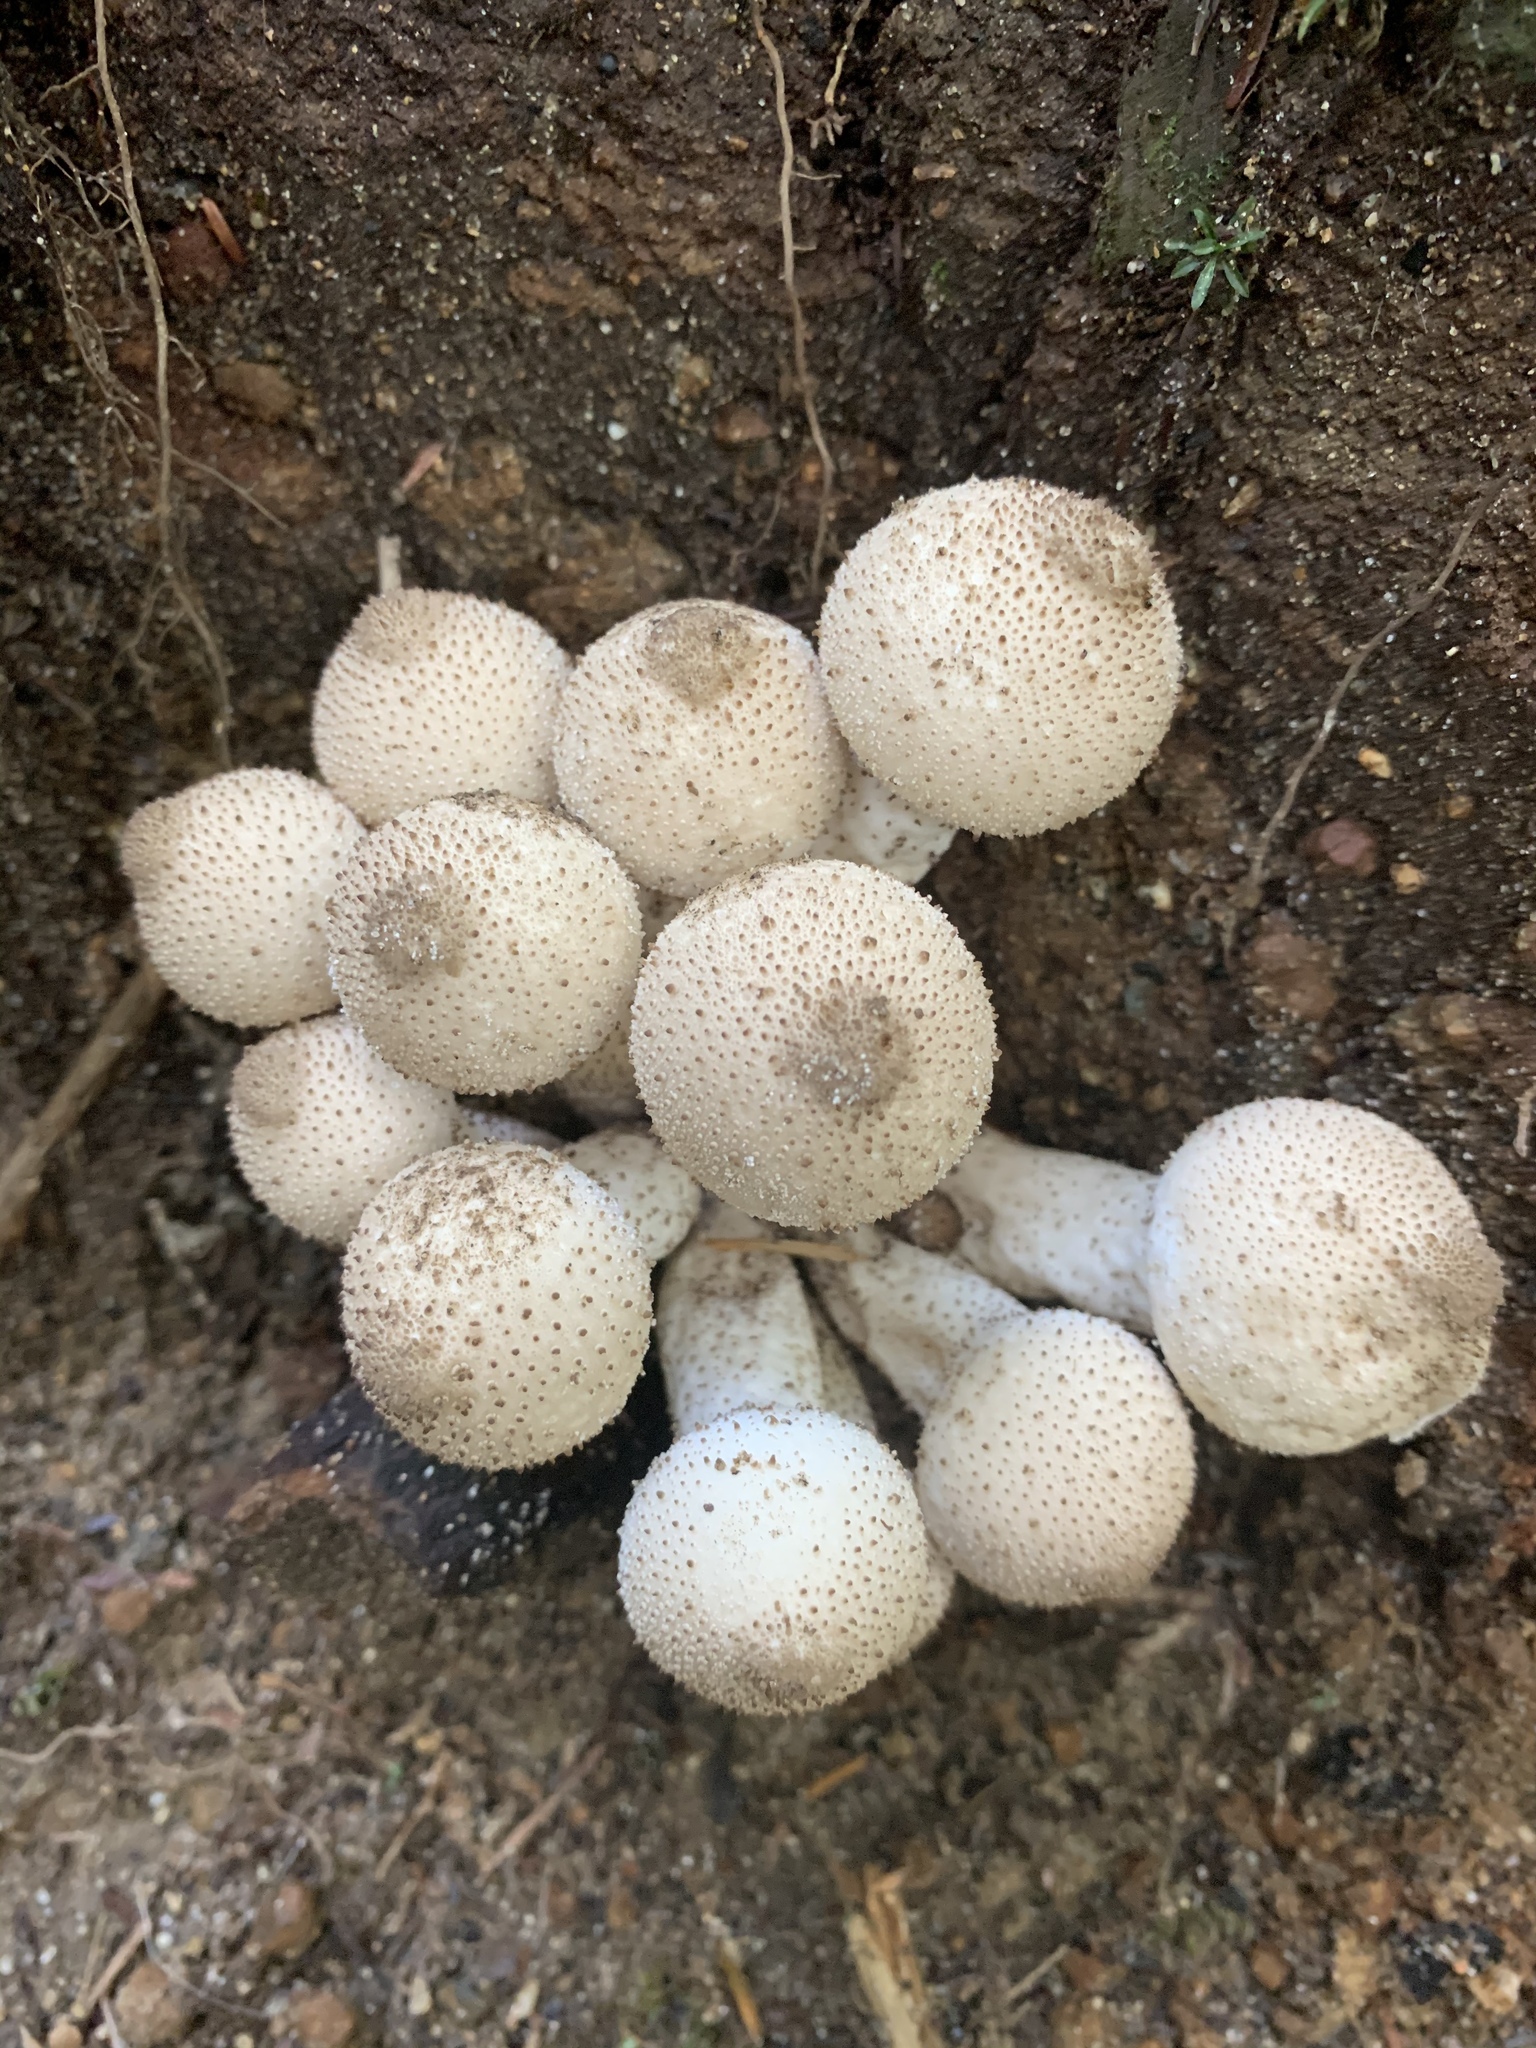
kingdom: Fungi
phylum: Basidiomycota
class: Agaricomycetes
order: Agaricales
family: Lycoperdaceae
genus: Lycoperdon
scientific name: Lycoperdon perlatum
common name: Common puffball
